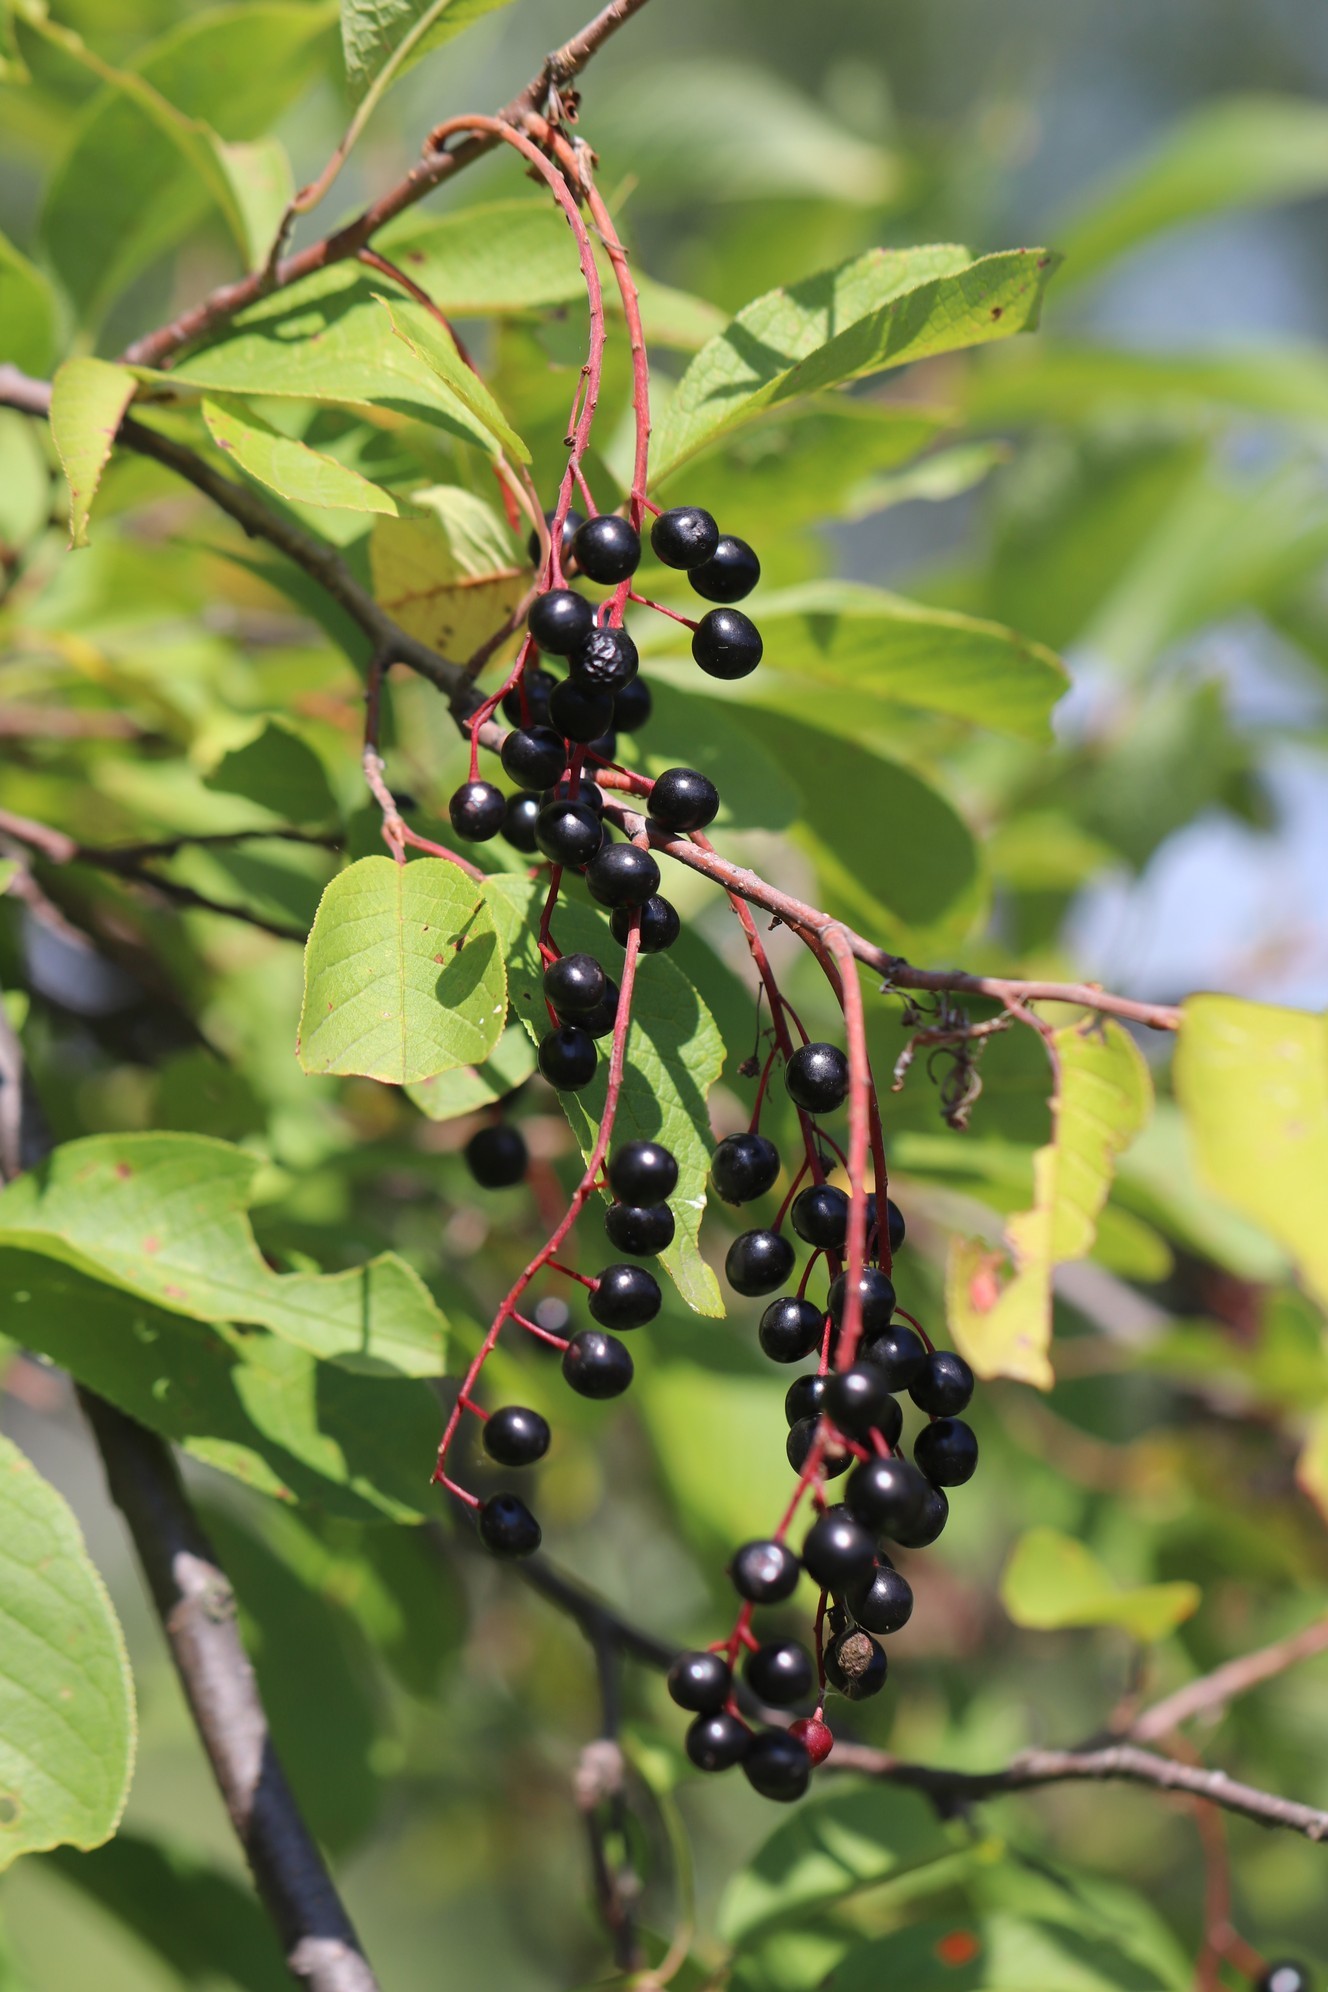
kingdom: Plantae
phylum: Tracheophyta
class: Magnoliopsida
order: Rosales
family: Rosaceae
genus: Prunus
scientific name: Prunus padus
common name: Bird cherry
